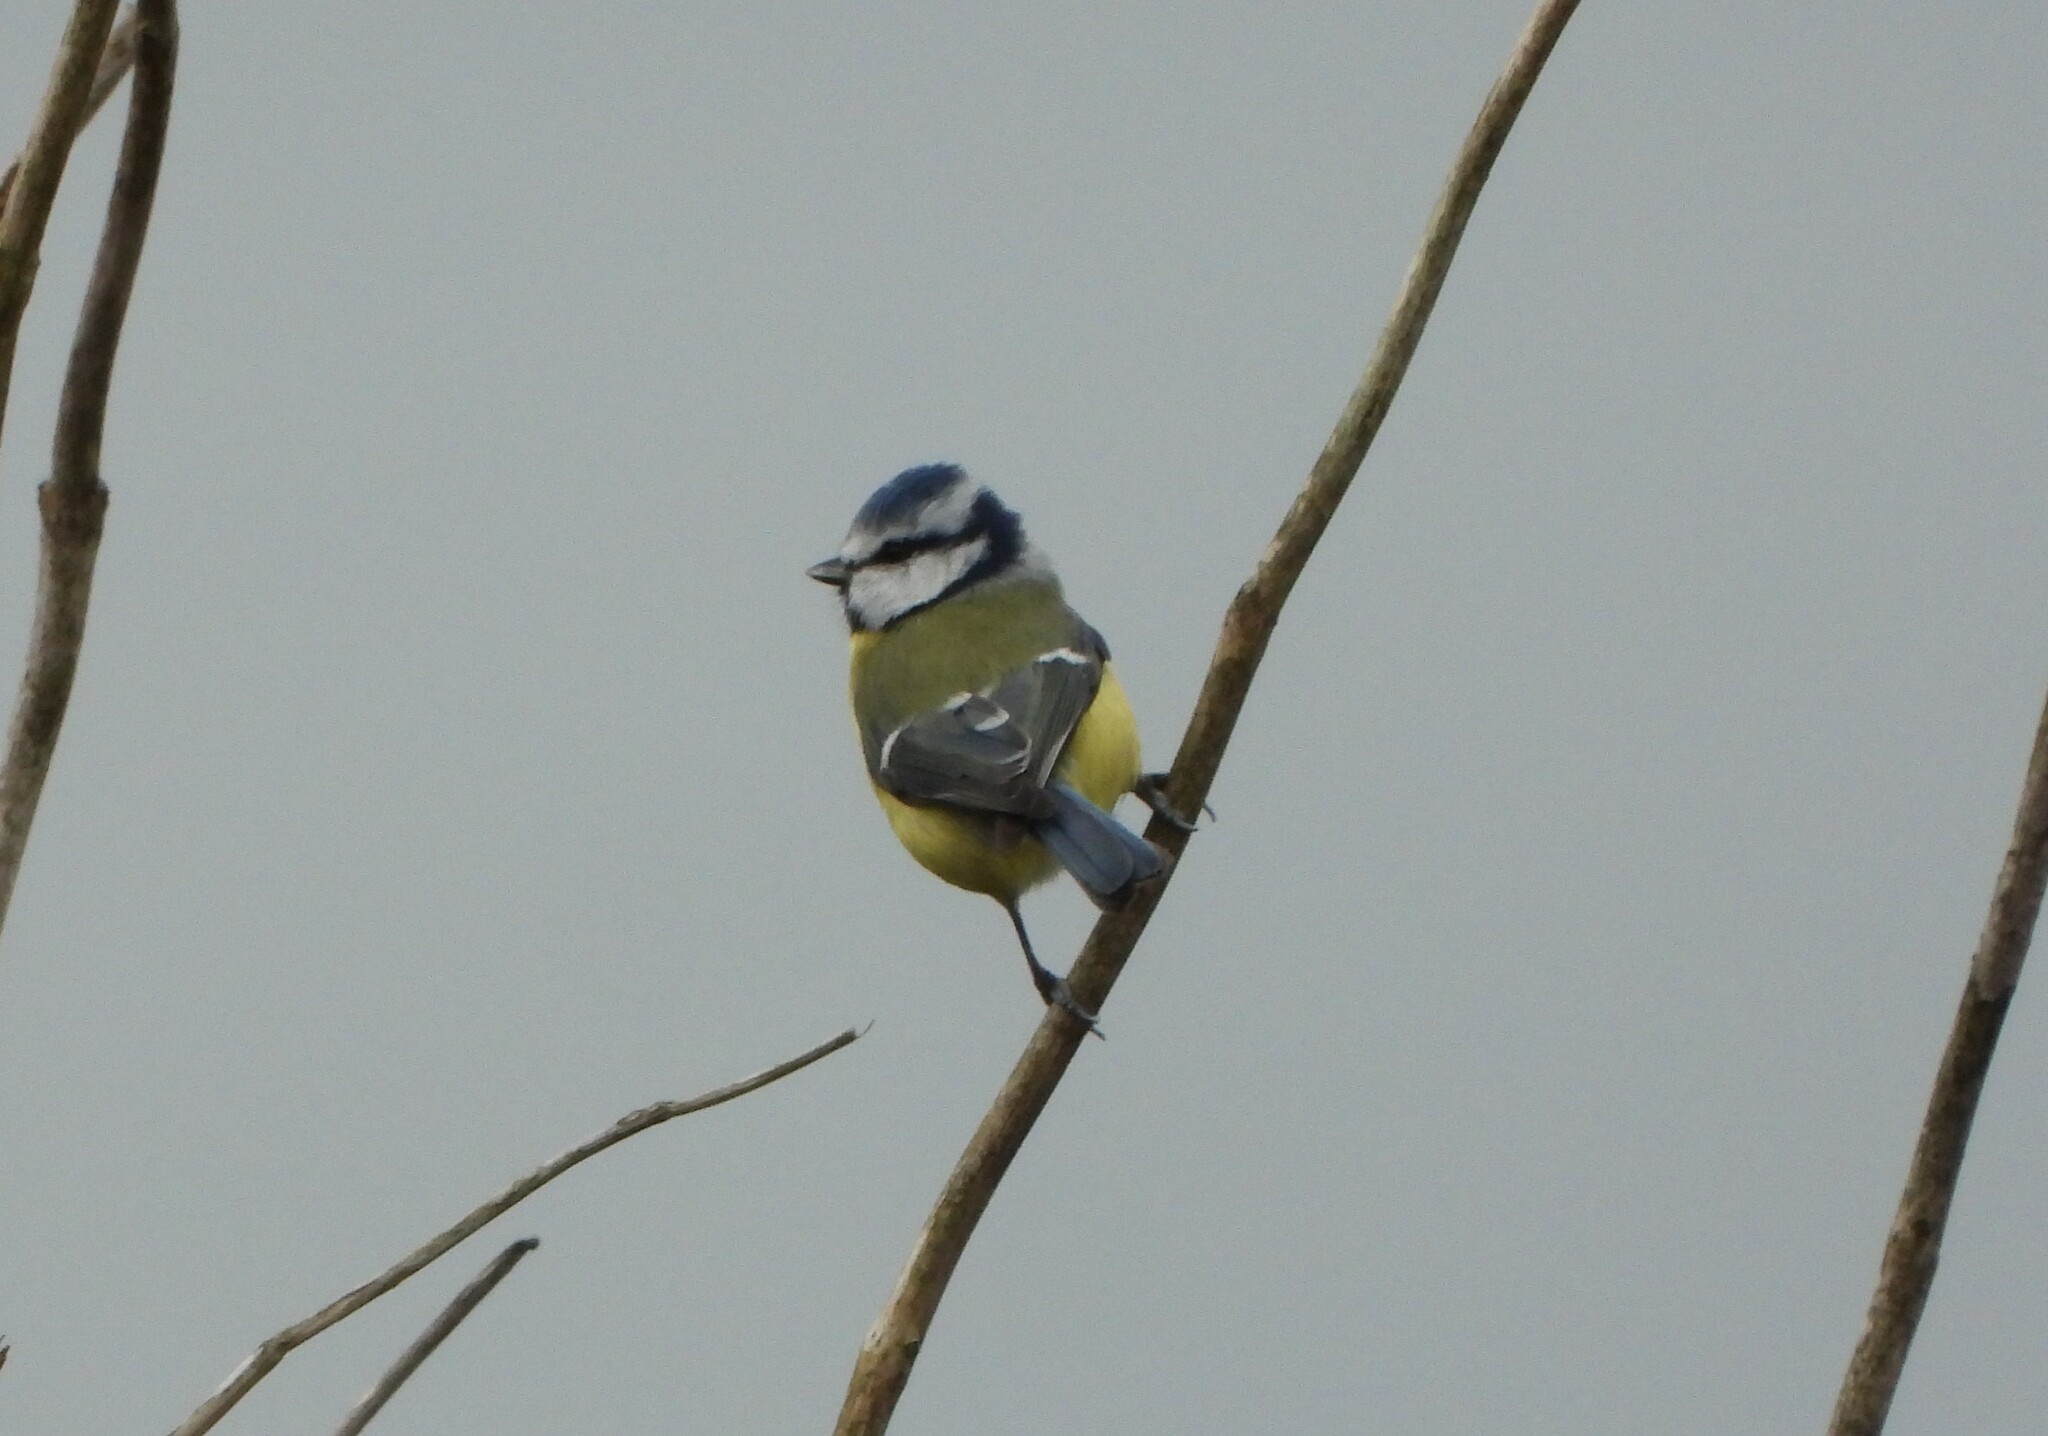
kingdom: Animalia
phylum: Chordata
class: Aves
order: Passeriformes
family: Paridae
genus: Cyanistes
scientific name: Cyanistes caeruleus
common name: Eurasian blue tit
